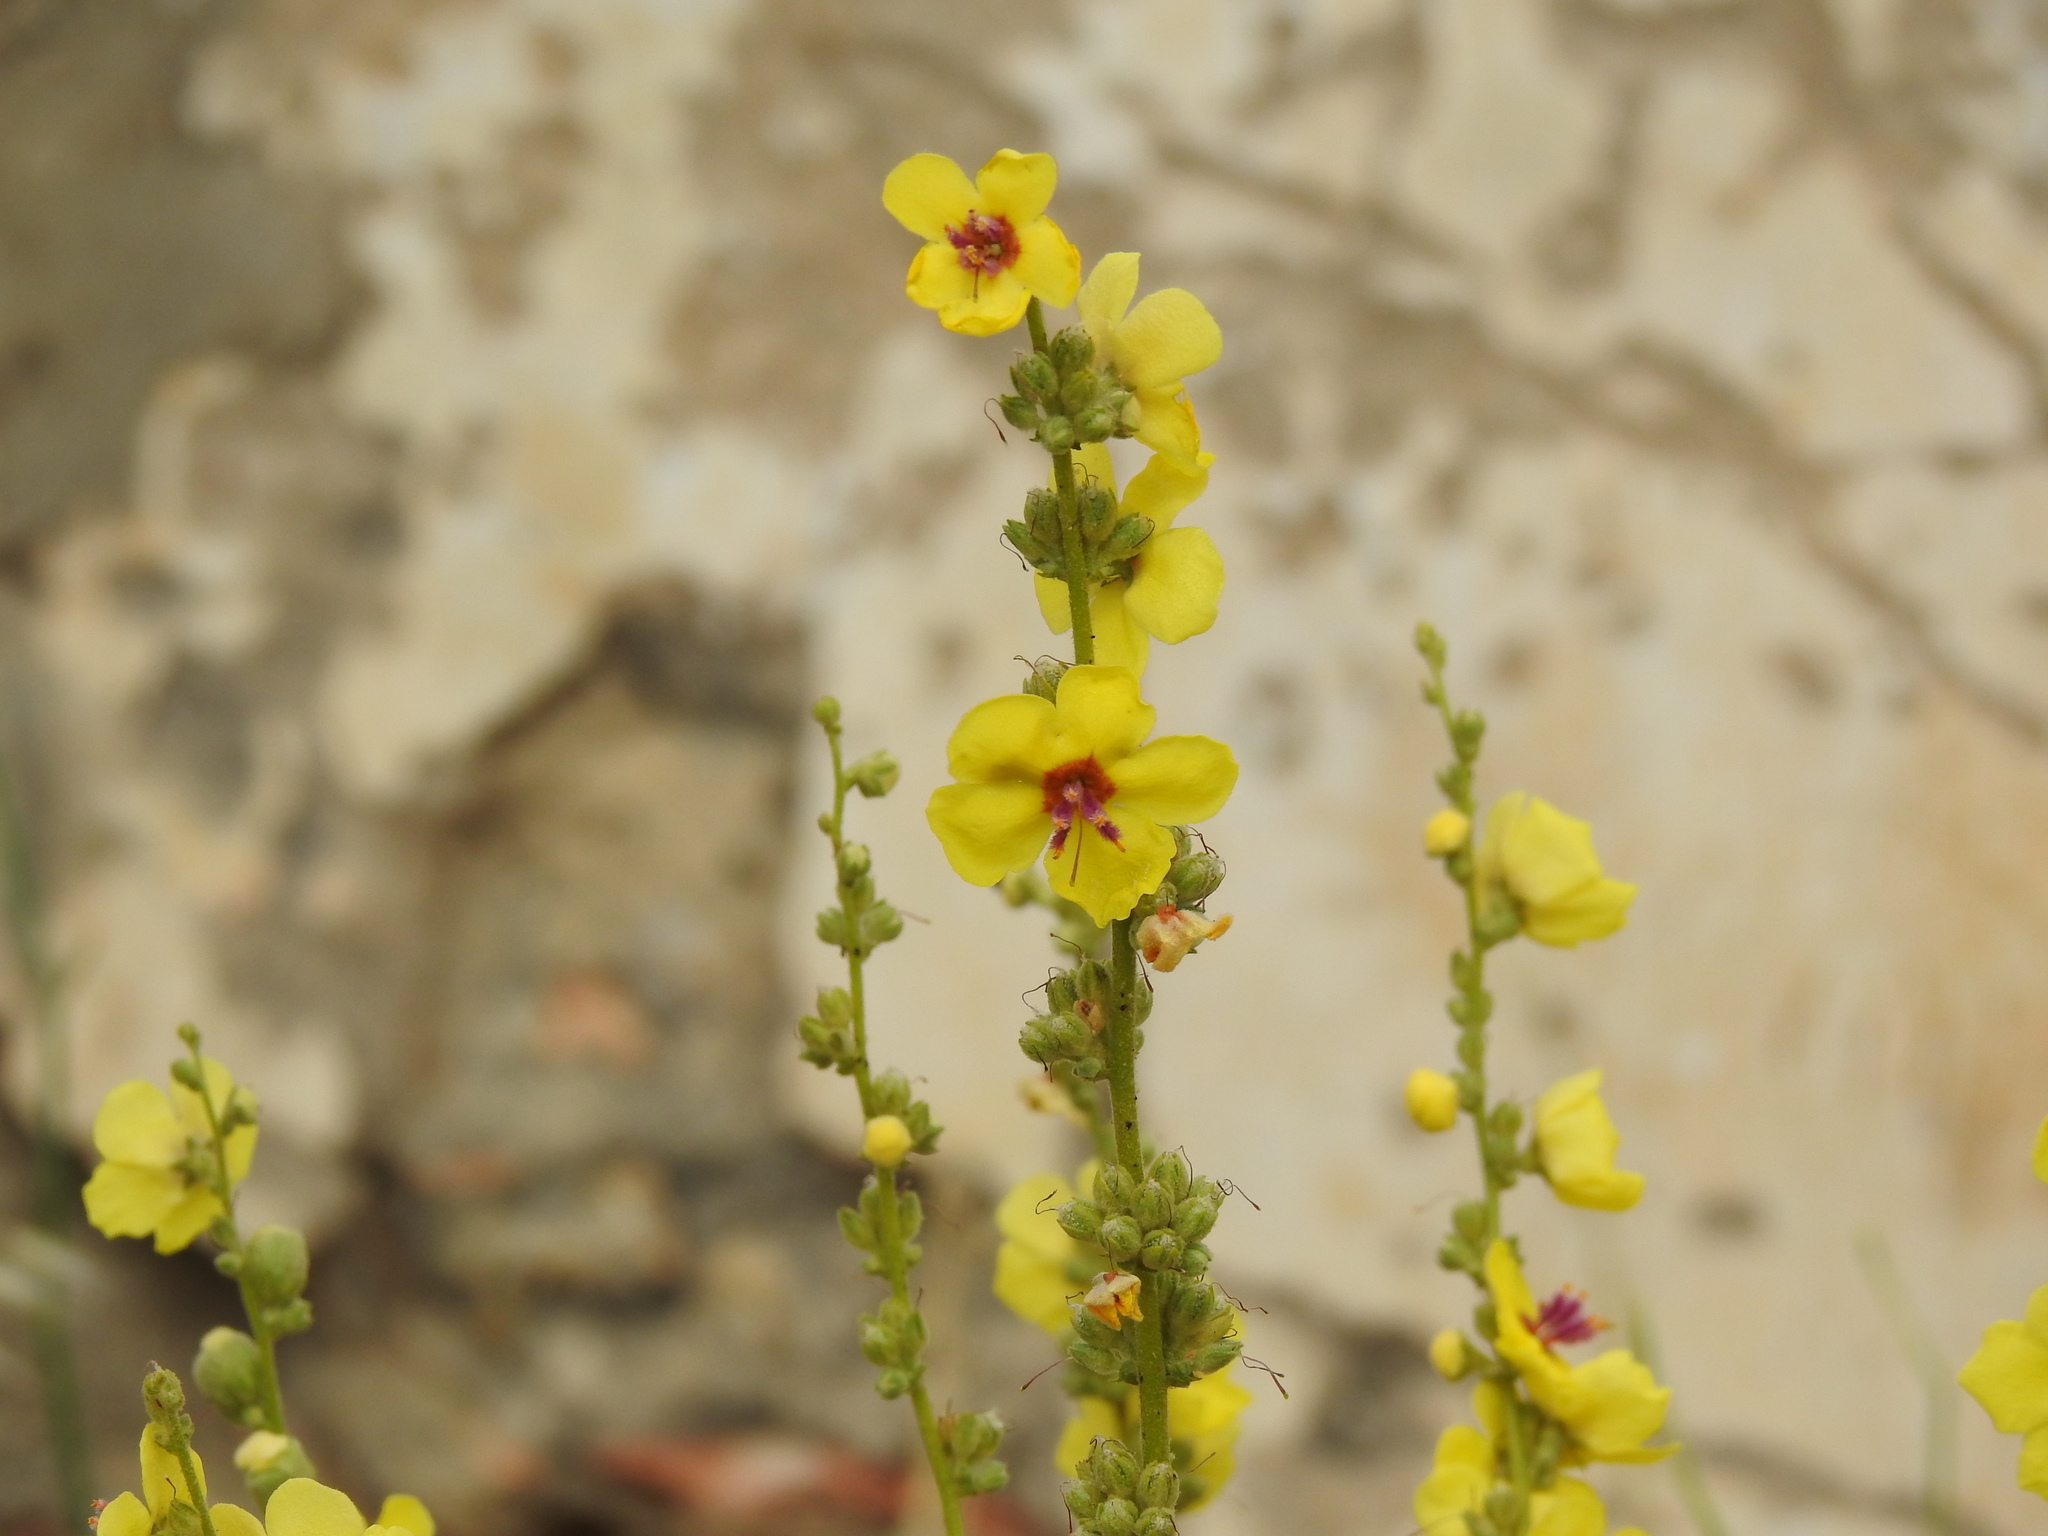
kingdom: Plantae
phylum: Tracheophyta
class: Magnoliopsida
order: Lamiales
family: Scrophulariaceae
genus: Verbascum
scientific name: Verbascum sinuatum
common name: Wavyleaf mullein
